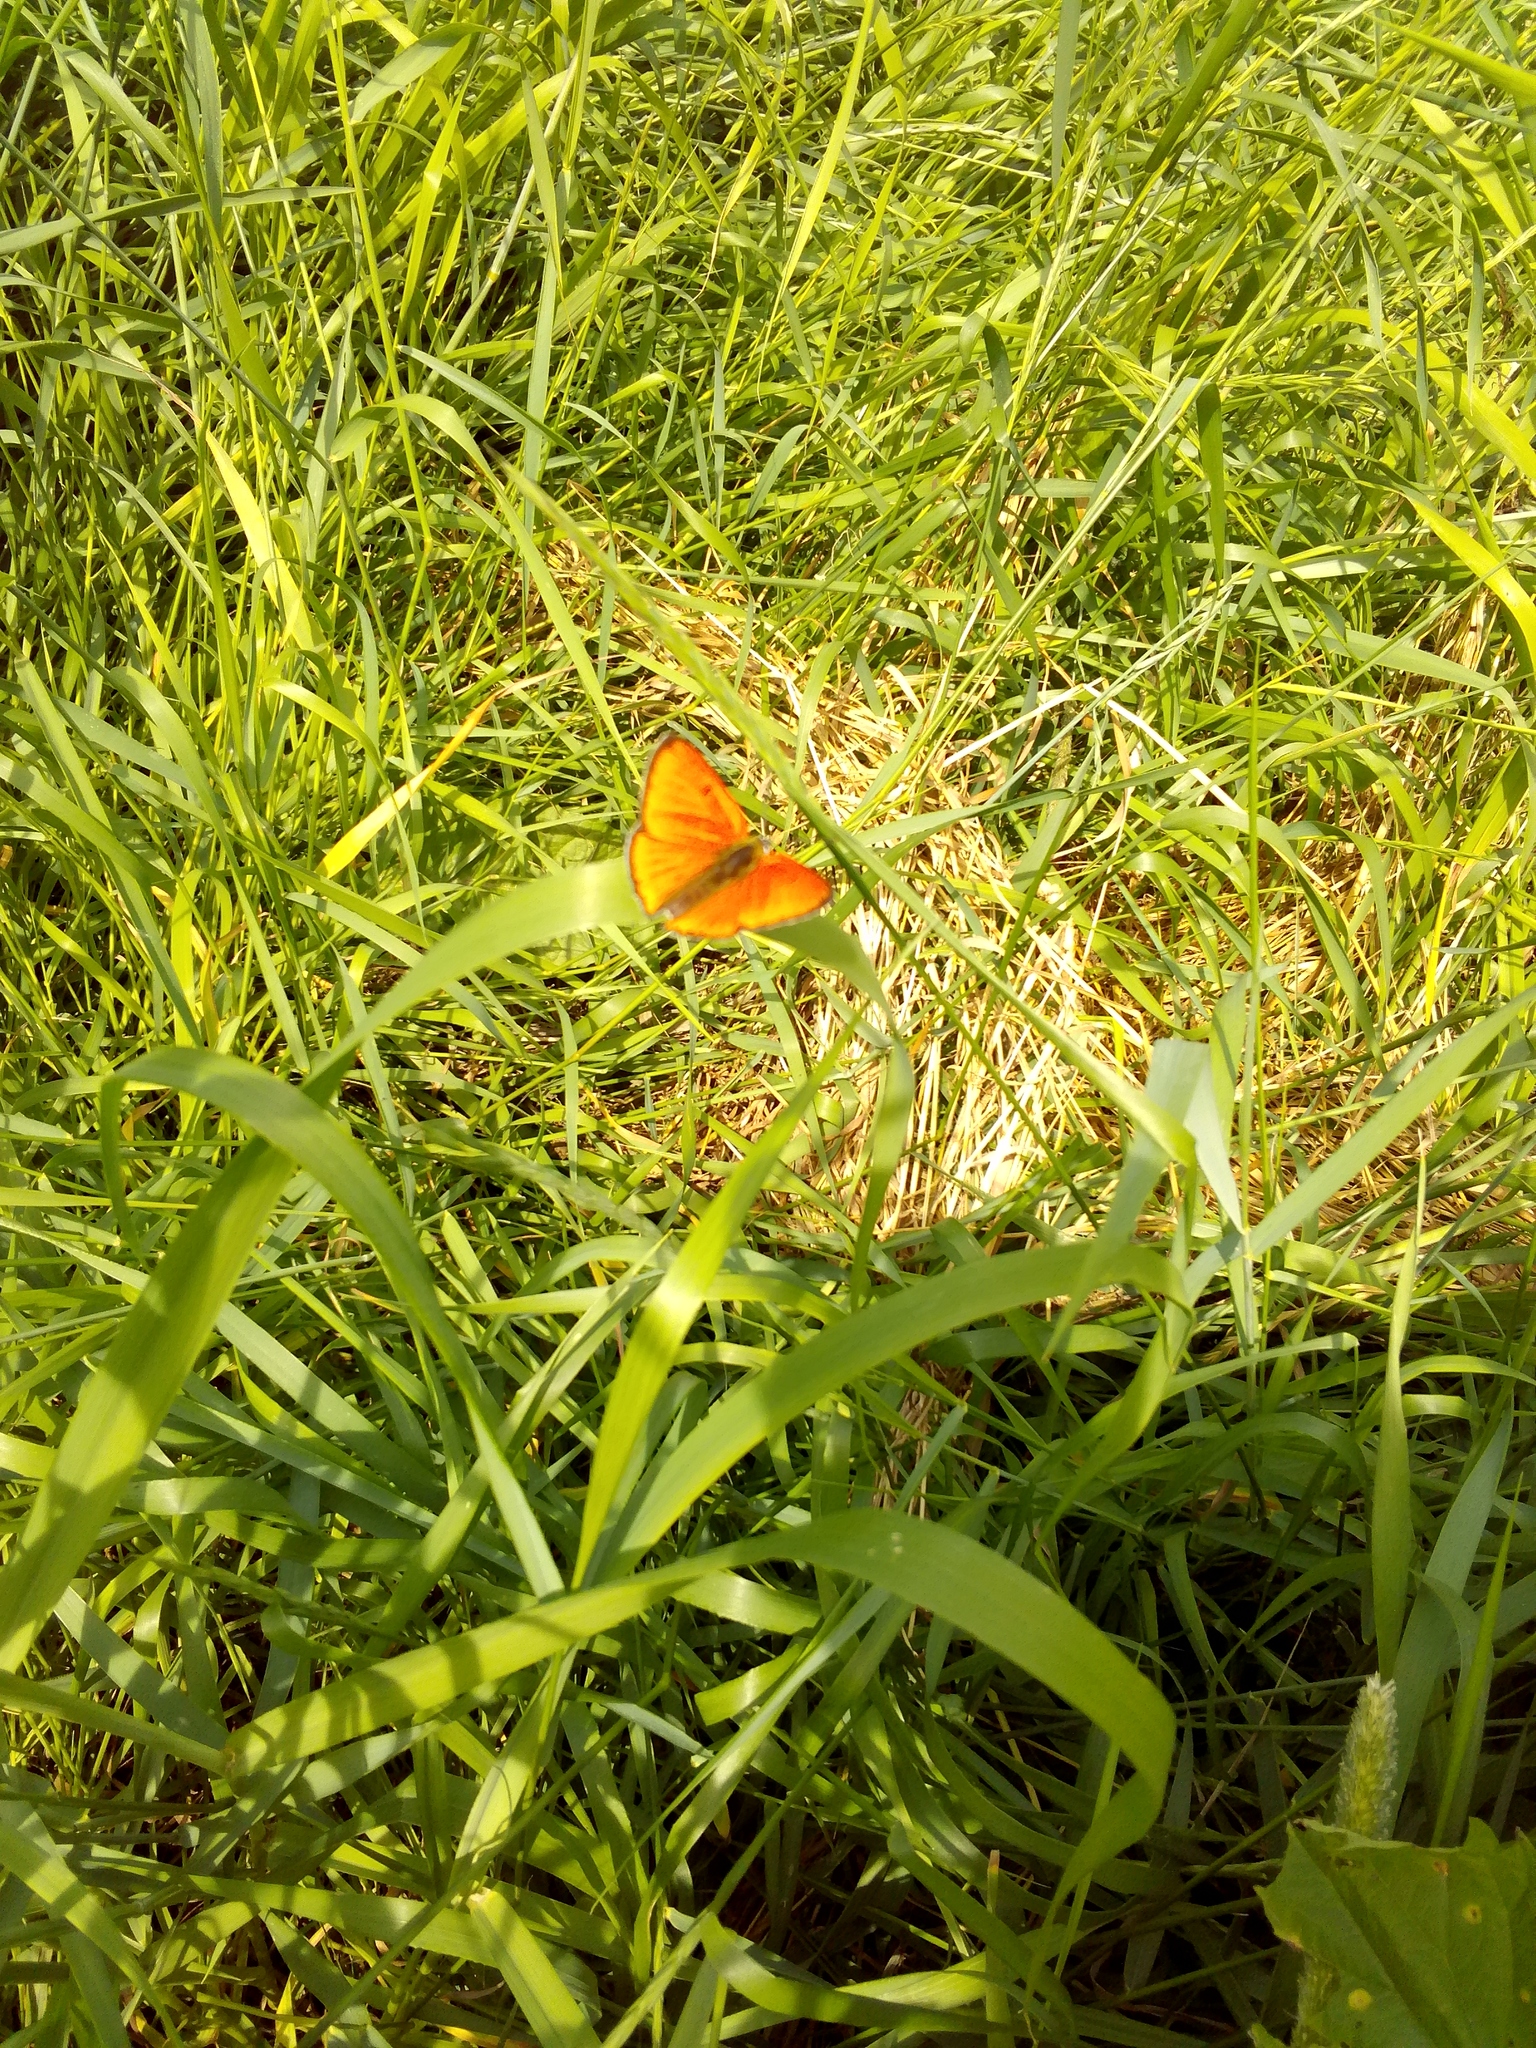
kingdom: Animalia
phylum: Arthropoda
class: Insecta
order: Lepidoptera
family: Lycaenidae
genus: Lycaena
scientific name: Lycaena dispar
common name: Large copper
